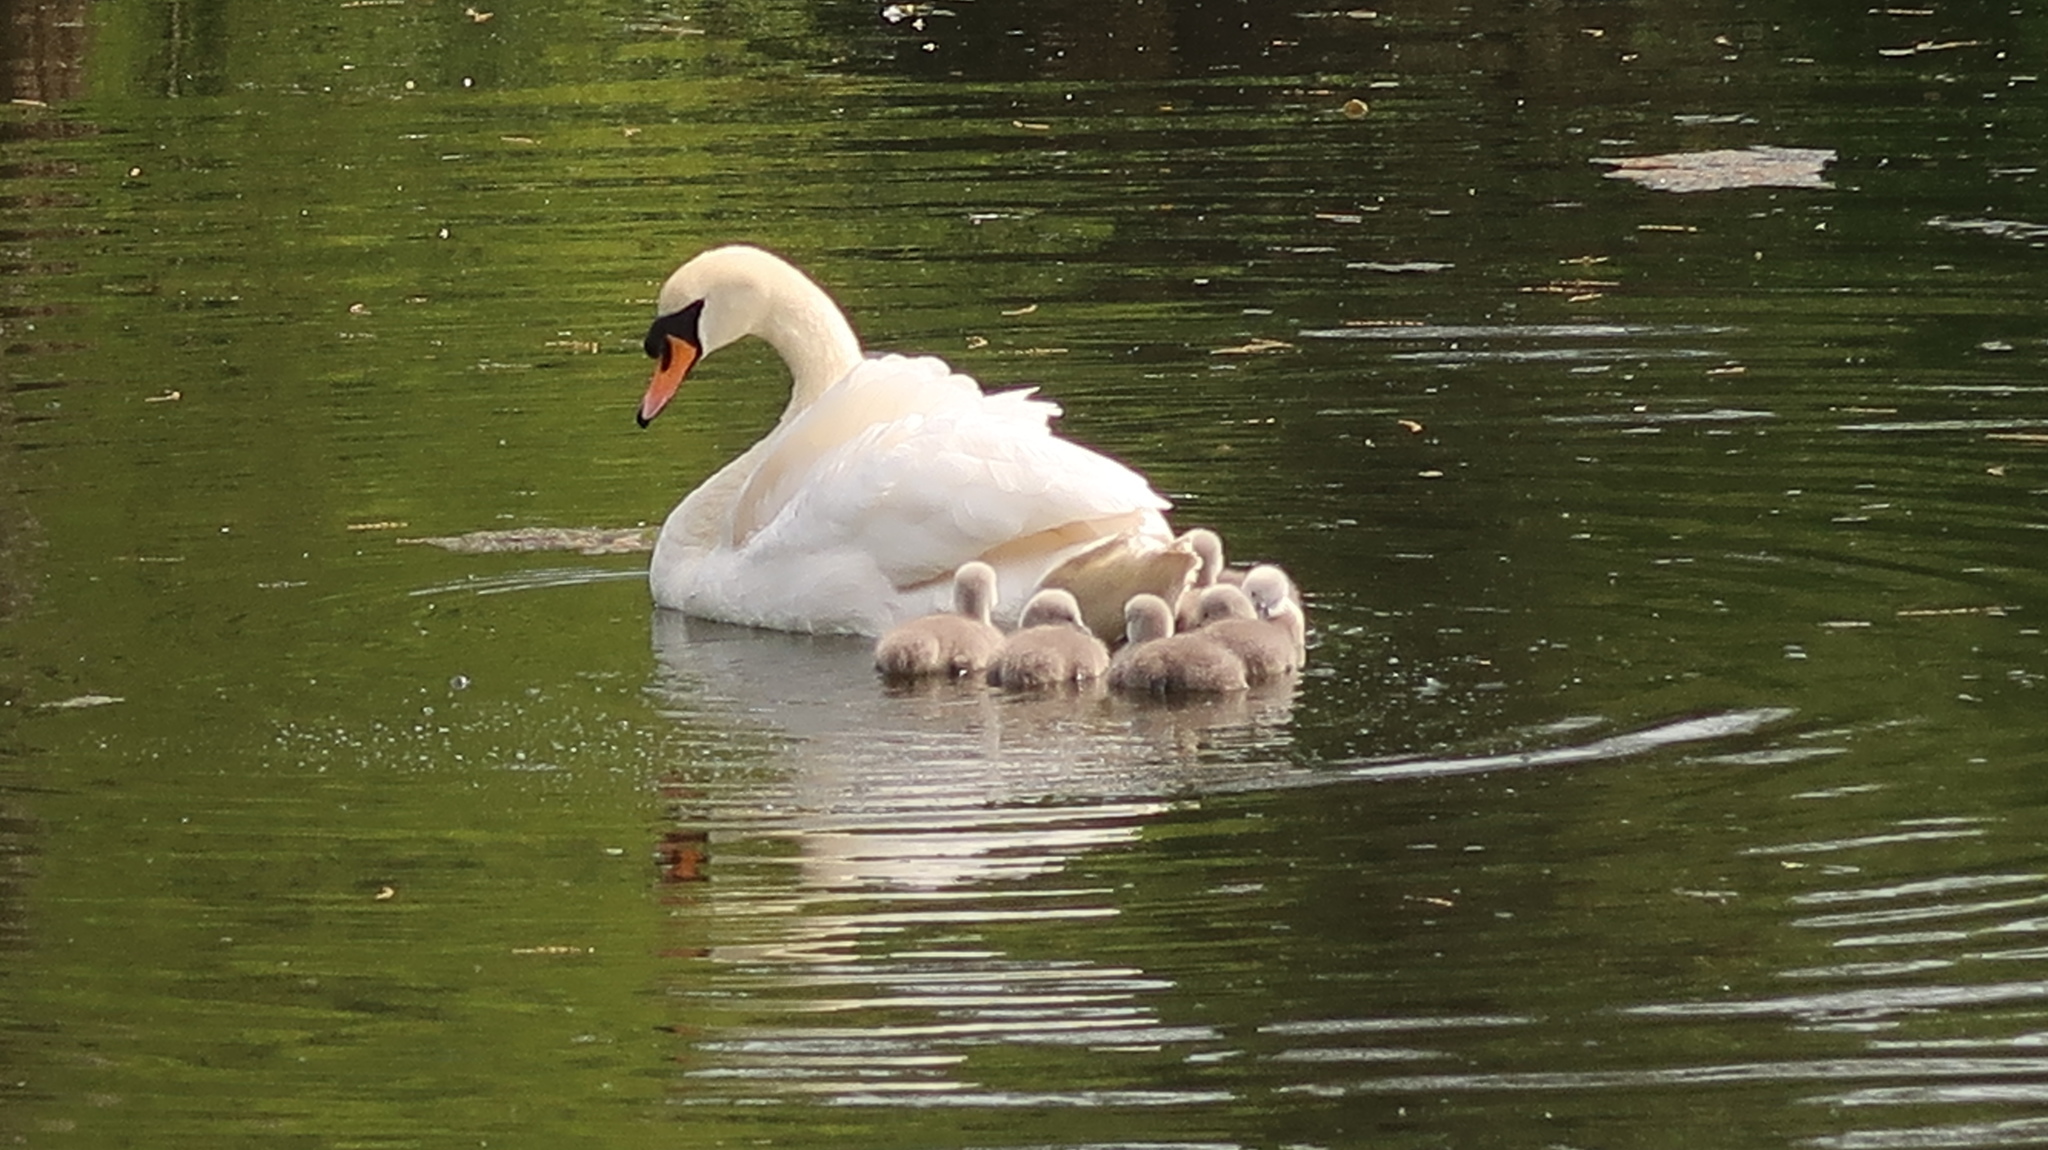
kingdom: Animalia
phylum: Chordata
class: Aves
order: Anseriformes
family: Anatidae
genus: Cygnus
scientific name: Cygnus olor
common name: Mute swan
